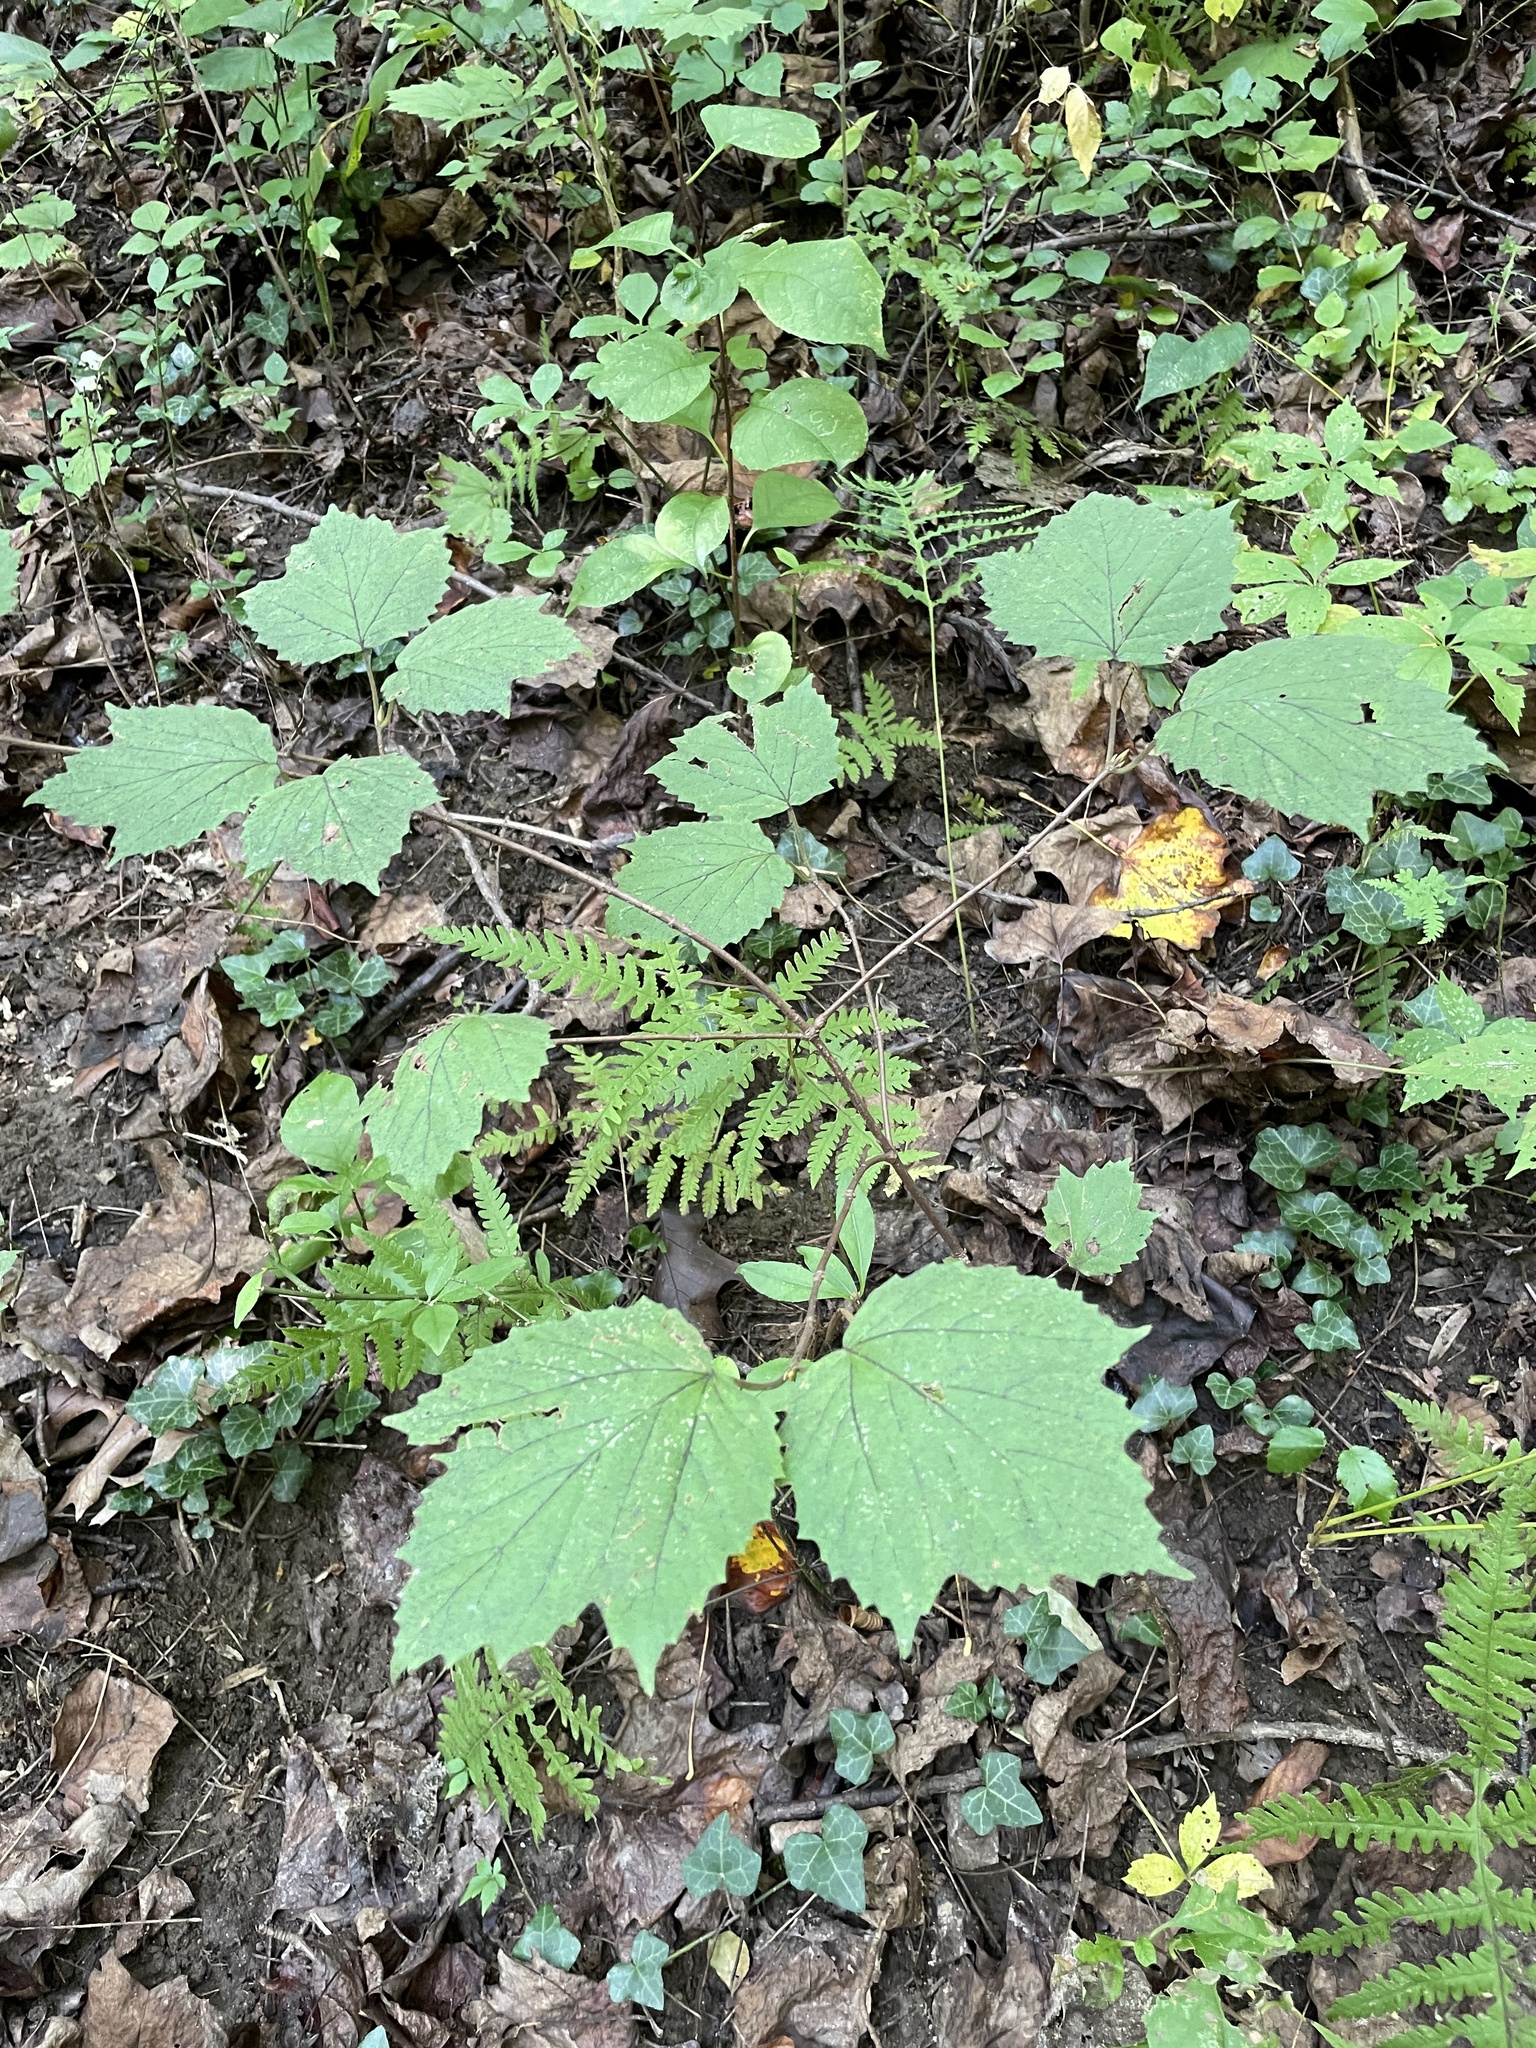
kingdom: Plantae
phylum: Tracheophyta
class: Magnoliopsida
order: Dipsacales
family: Viburnaceae
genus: Viburnum
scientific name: Viburnum acerifolium
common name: Dockmackie
